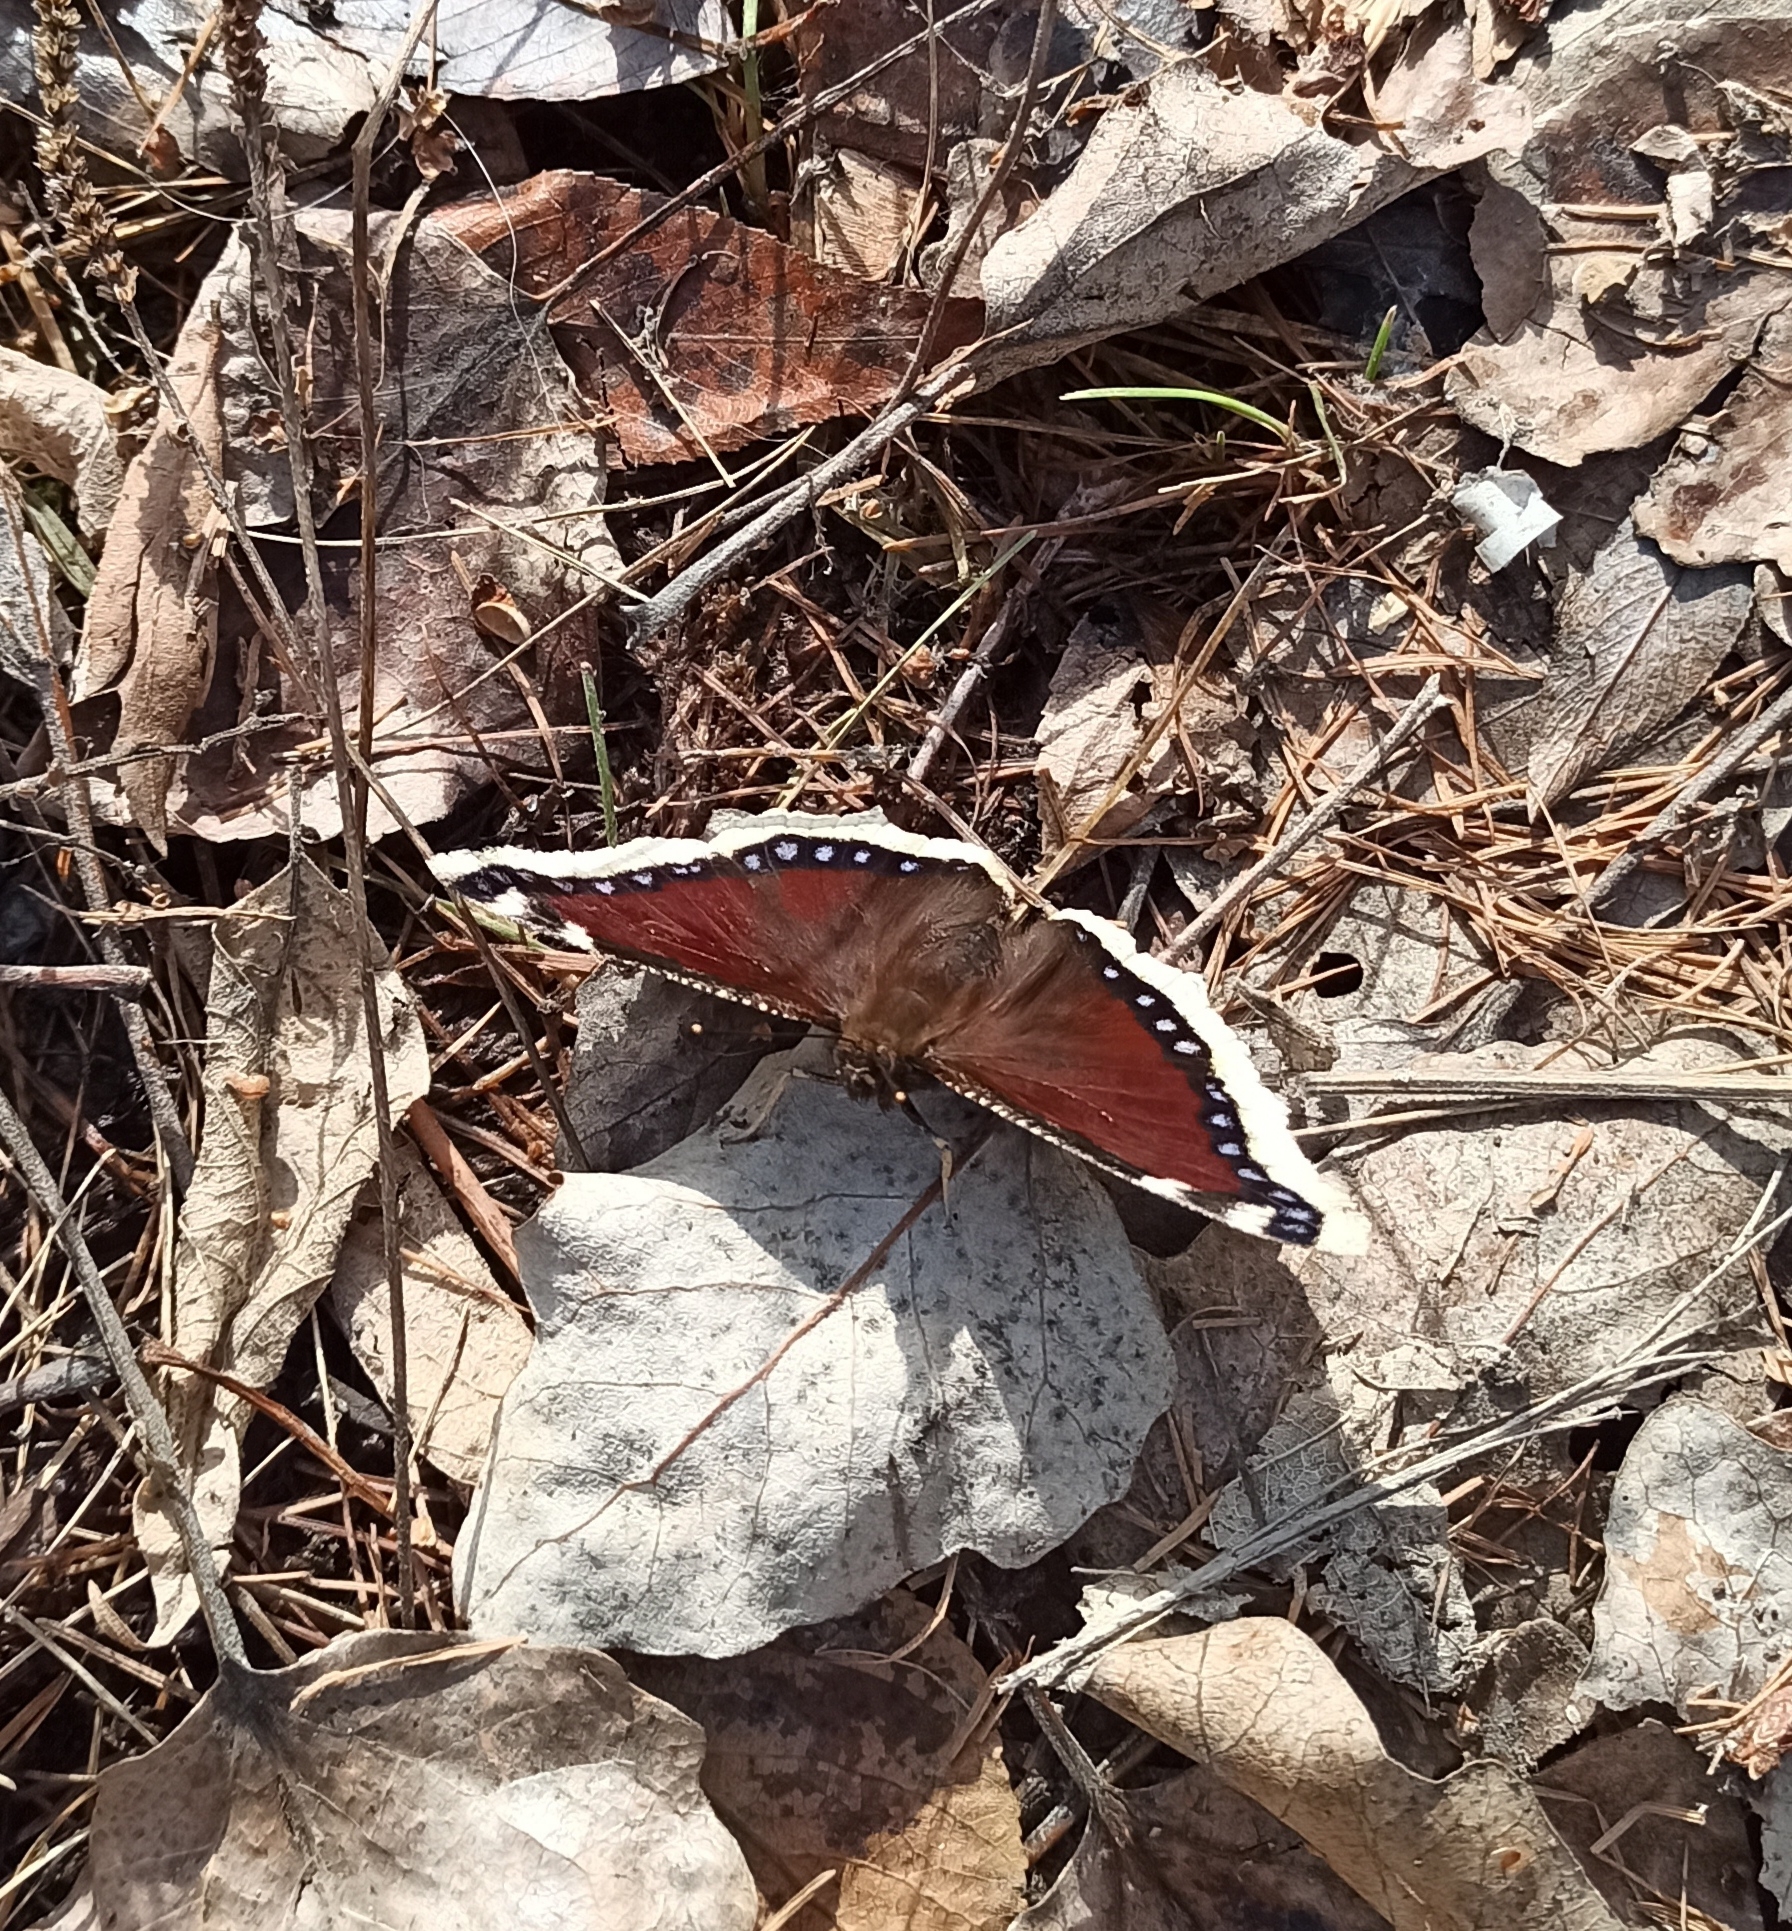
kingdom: Animalia
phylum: Arthropoda
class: Insecta
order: Lepidoptera
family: Nymphalidae
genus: Nymphalis
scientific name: Nymphalis antiopa
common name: Camberwell beauty
